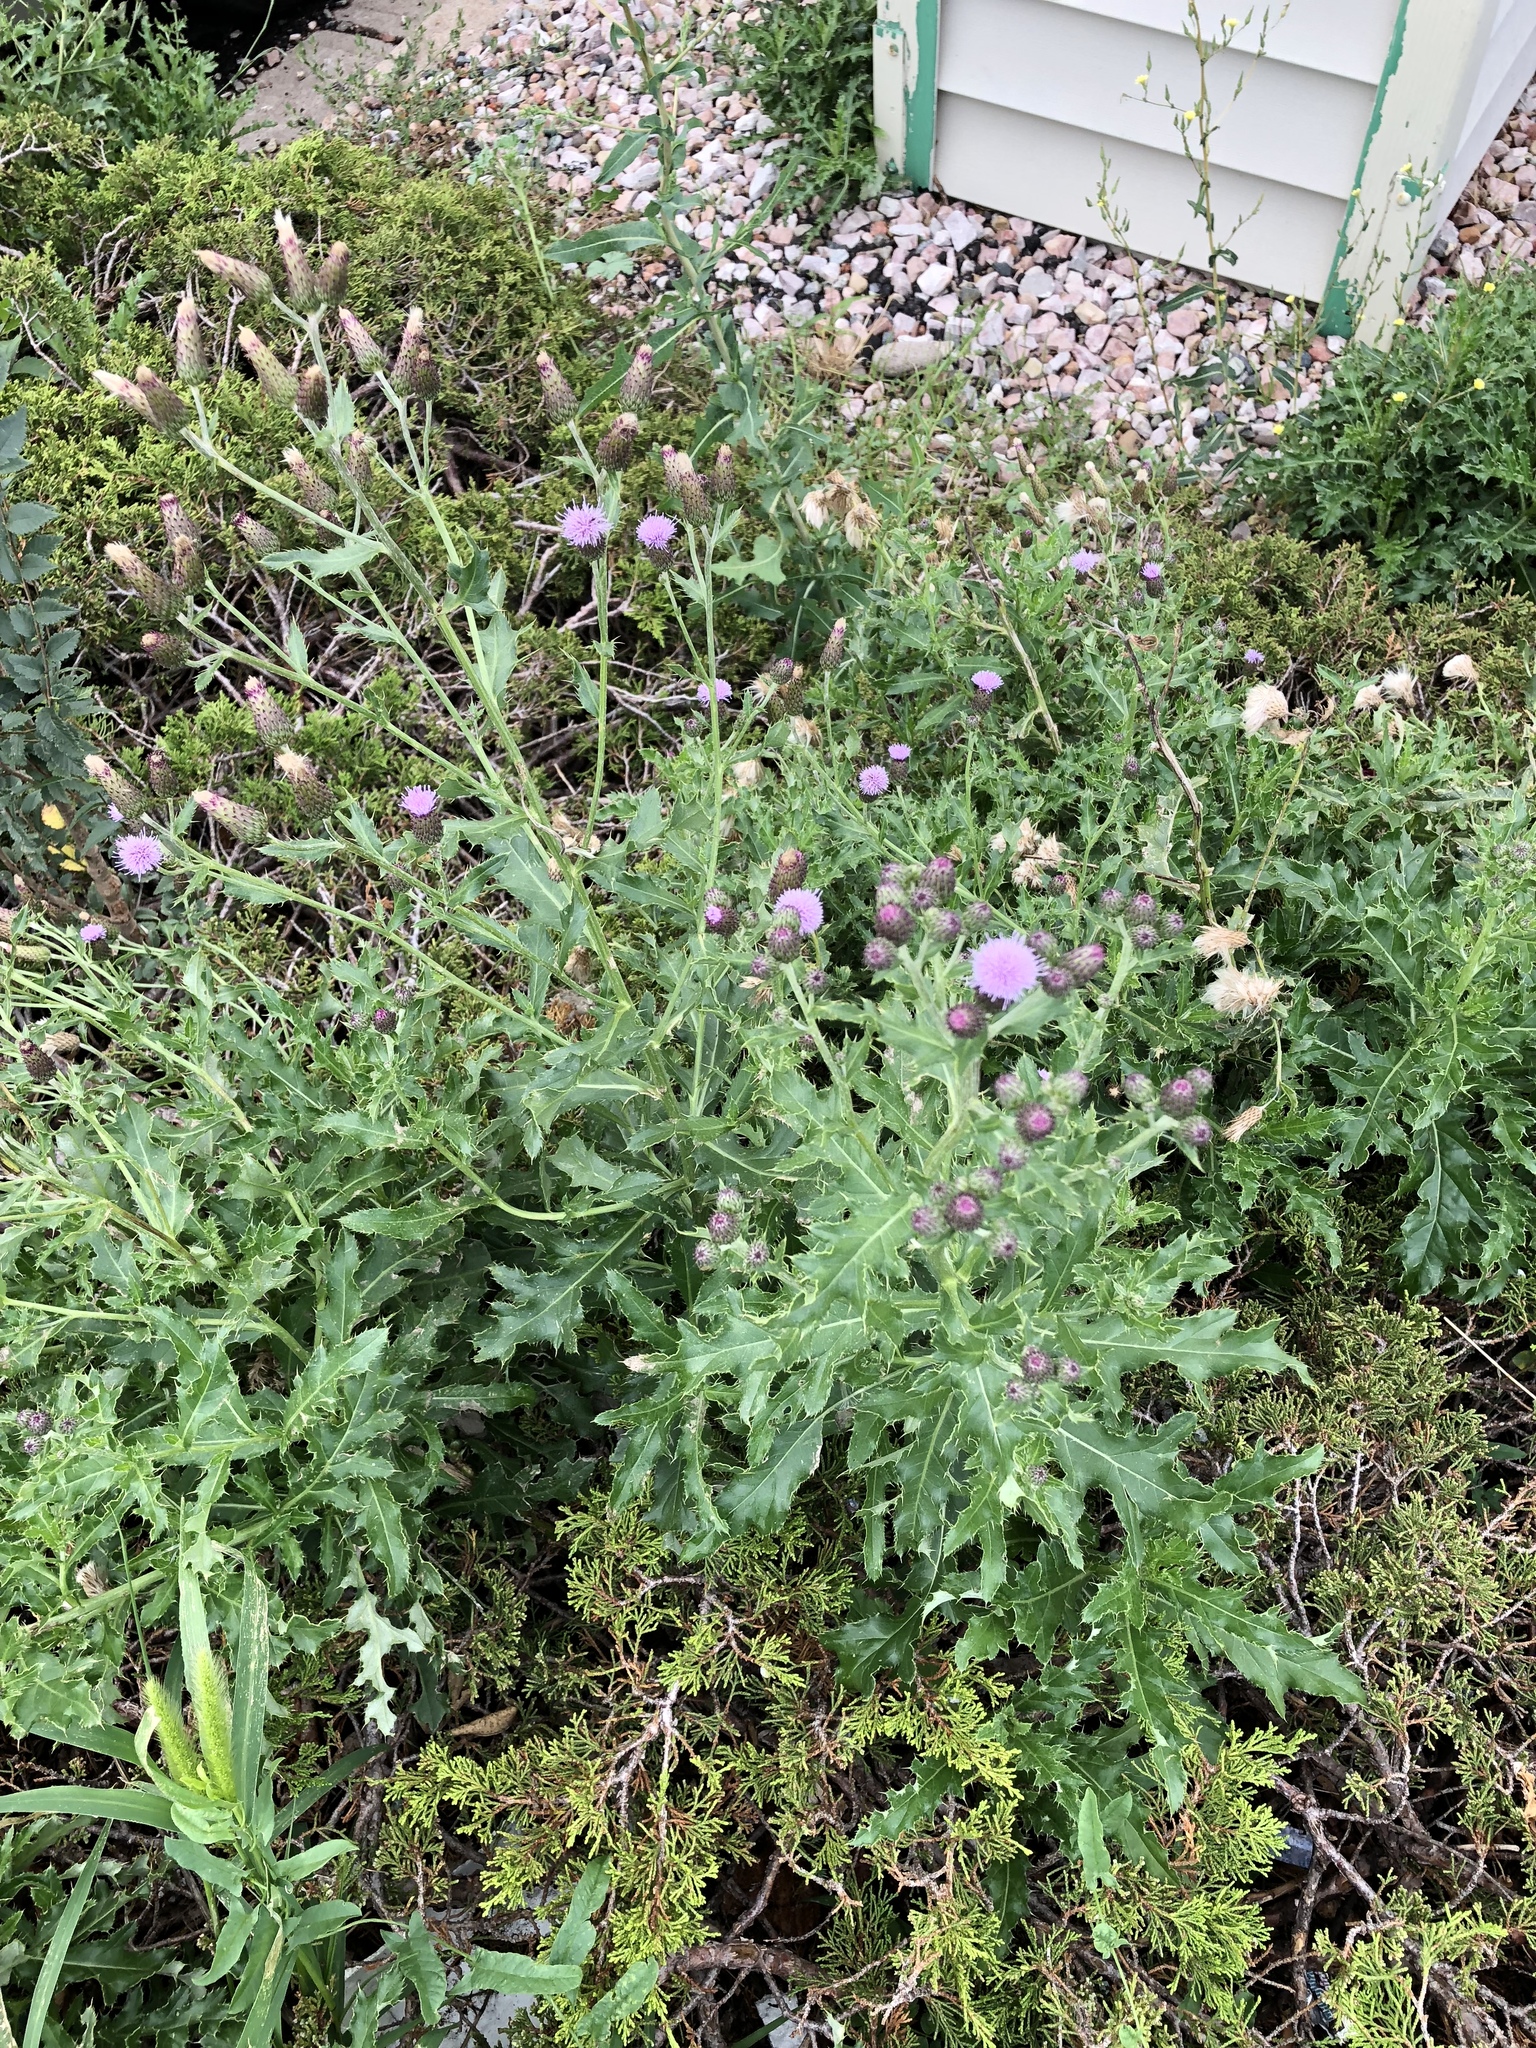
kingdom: Plantae
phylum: Tracheophyta
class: Magnoliopsida
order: Asterales
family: Asteraceae
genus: Cirsium
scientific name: Cirsium arvense
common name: Creeping thistle
